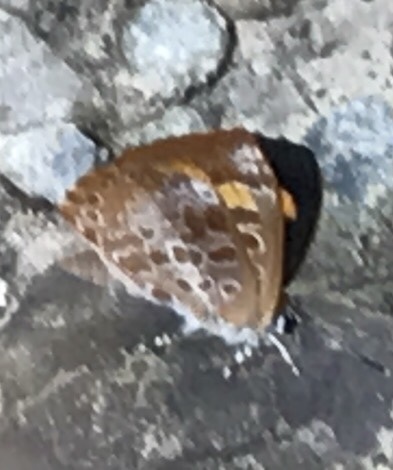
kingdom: Animalia
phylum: Arthropoda
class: Insecta
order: Lepidoptera
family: Lycaenidae
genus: Feniseca
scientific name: Feniseca tarquinius
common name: Harvester
